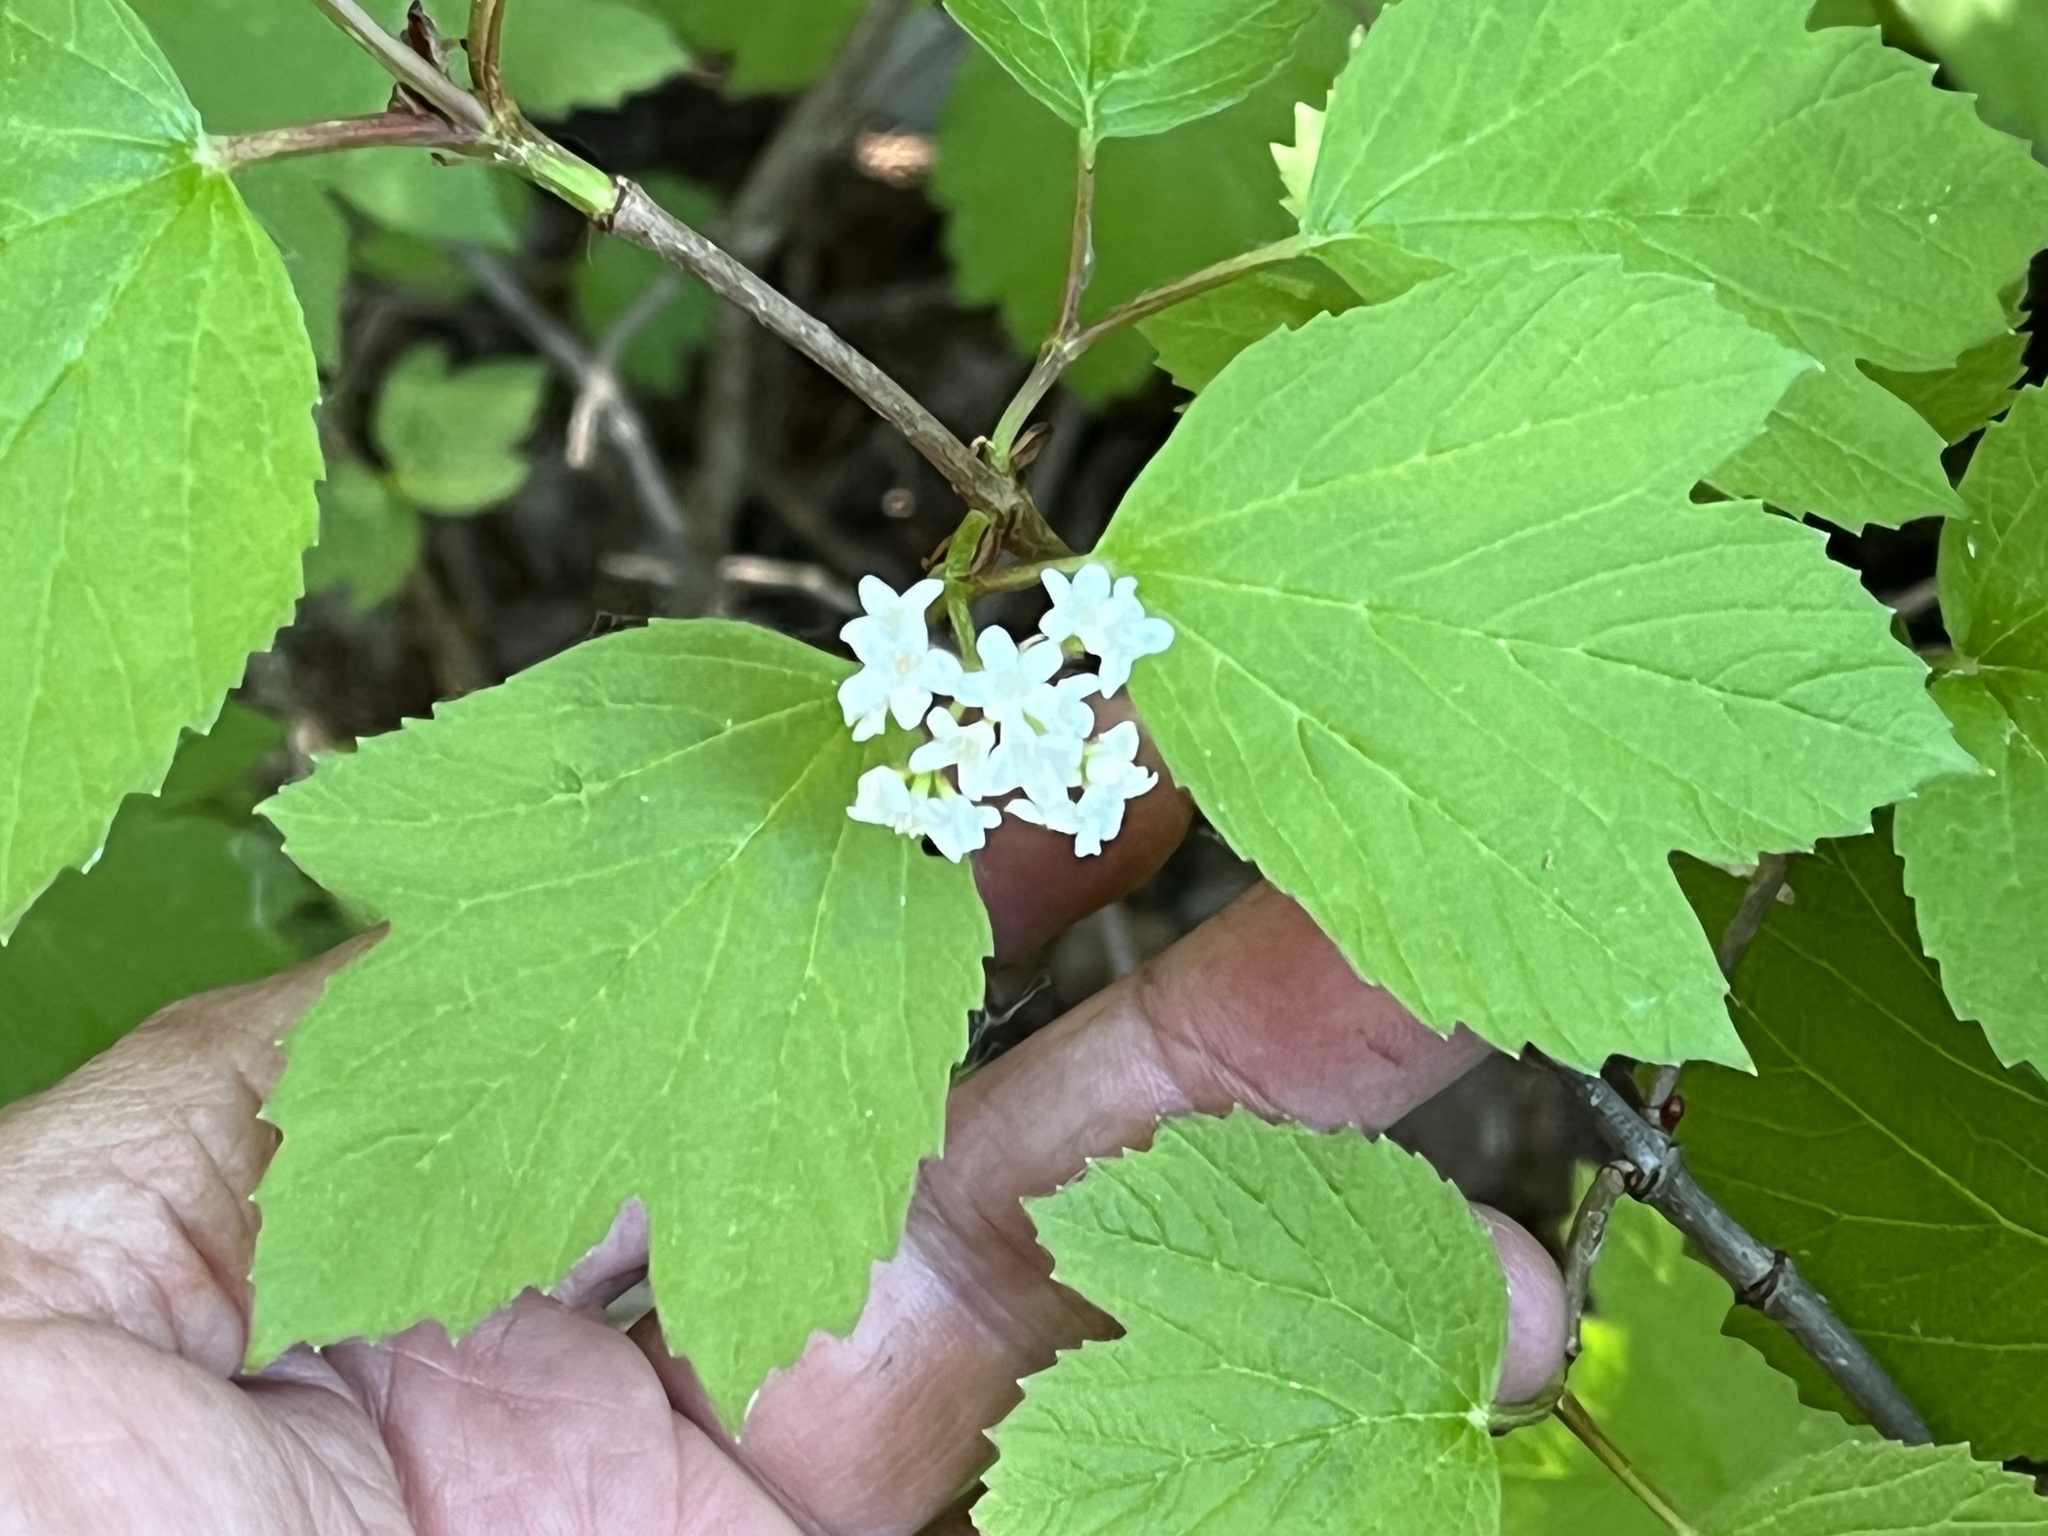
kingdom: Plantae
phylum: Tracheophyta
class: Magnoliopsida
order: Dipsacales
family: Viburnaceae
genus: Viburnum
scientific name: Viburnum edule
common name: Mooseberry
